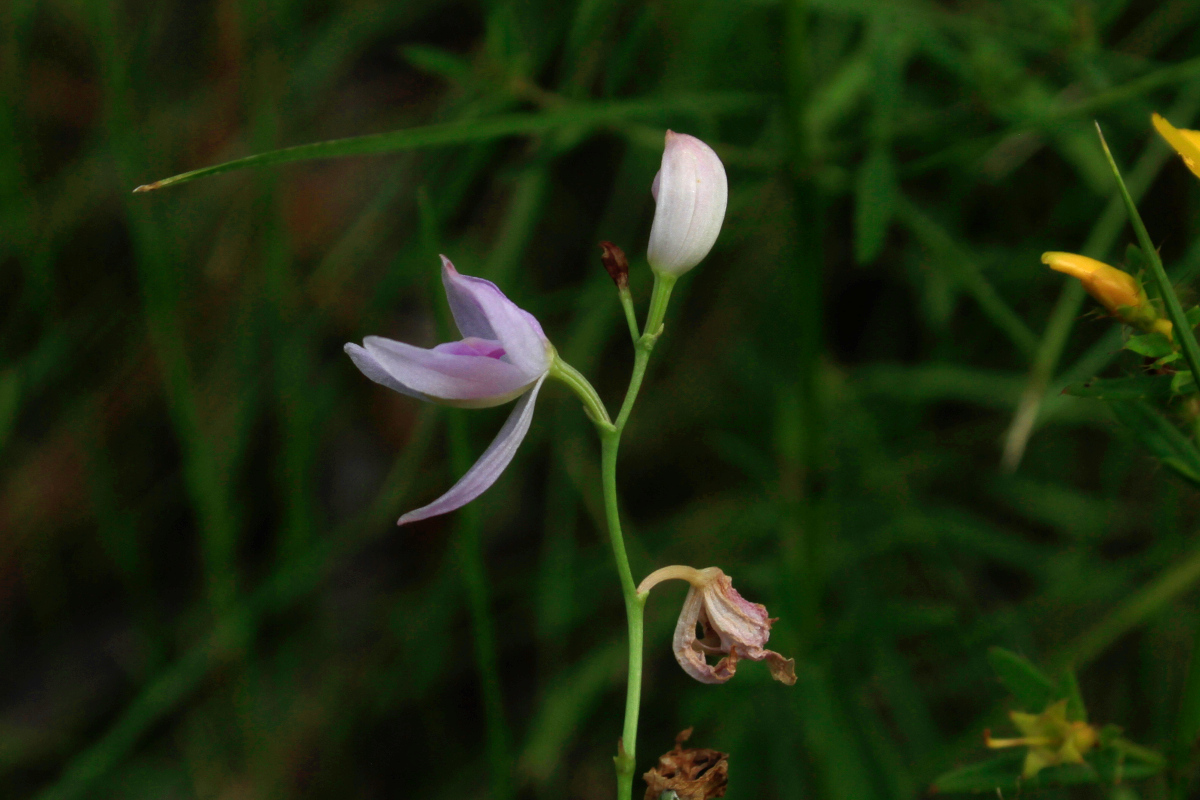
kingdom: Plantae
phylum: Tracheophyta
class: Liliopsida
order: Asparagales
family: Orchidaceae
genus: Calopogon
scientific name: Calopogon pallidus
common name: Pale grasspink
